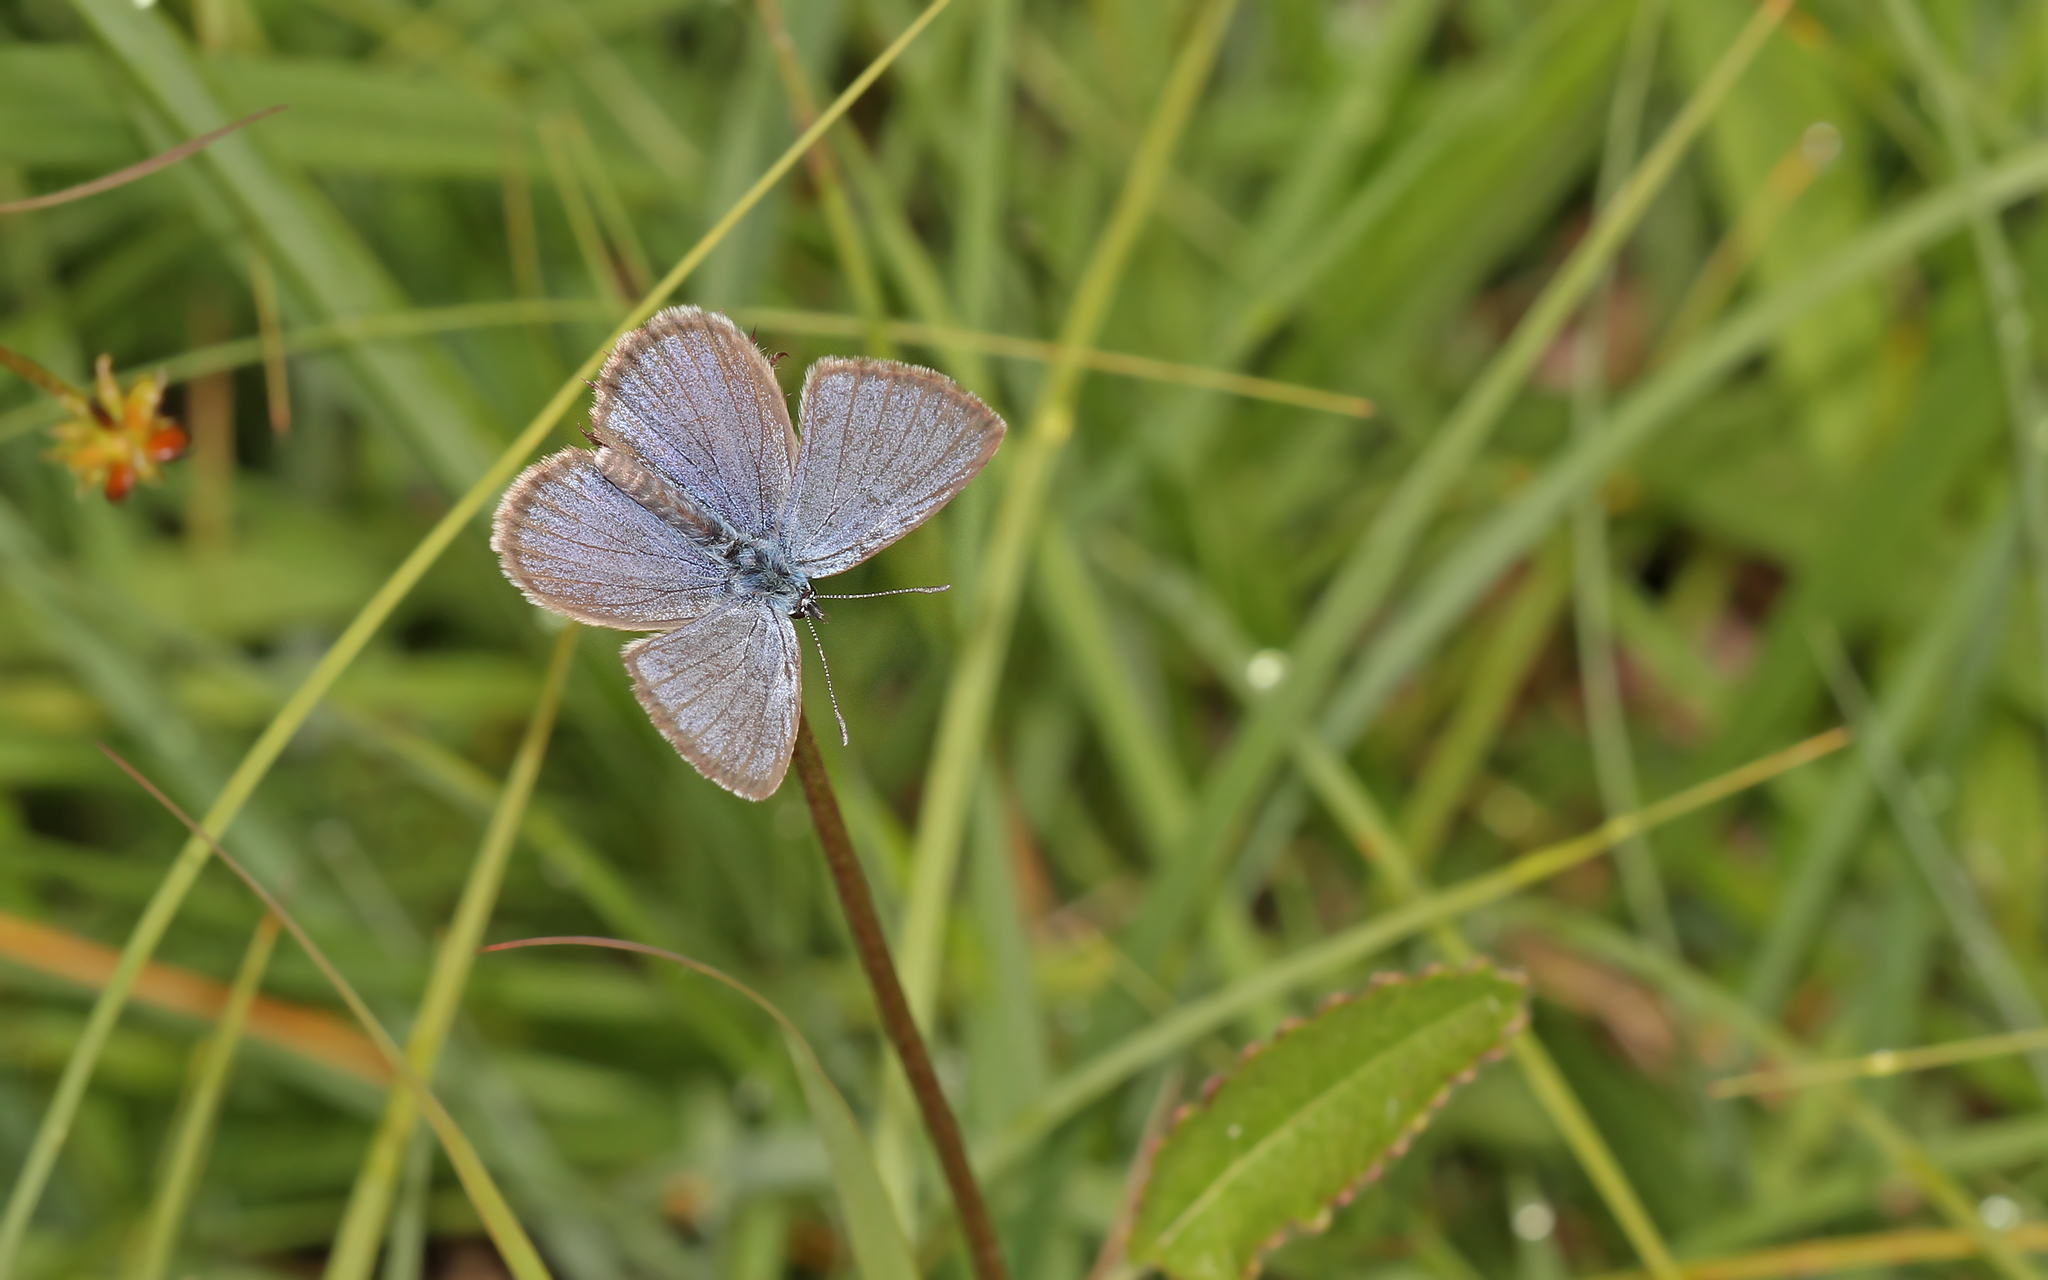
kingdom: Animalia
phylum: Arthropoda
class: Insecta
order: Lepidoptera
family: Lycaenidae
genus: Maculinea
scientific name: Maculinea alcon
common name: Alcon blue
